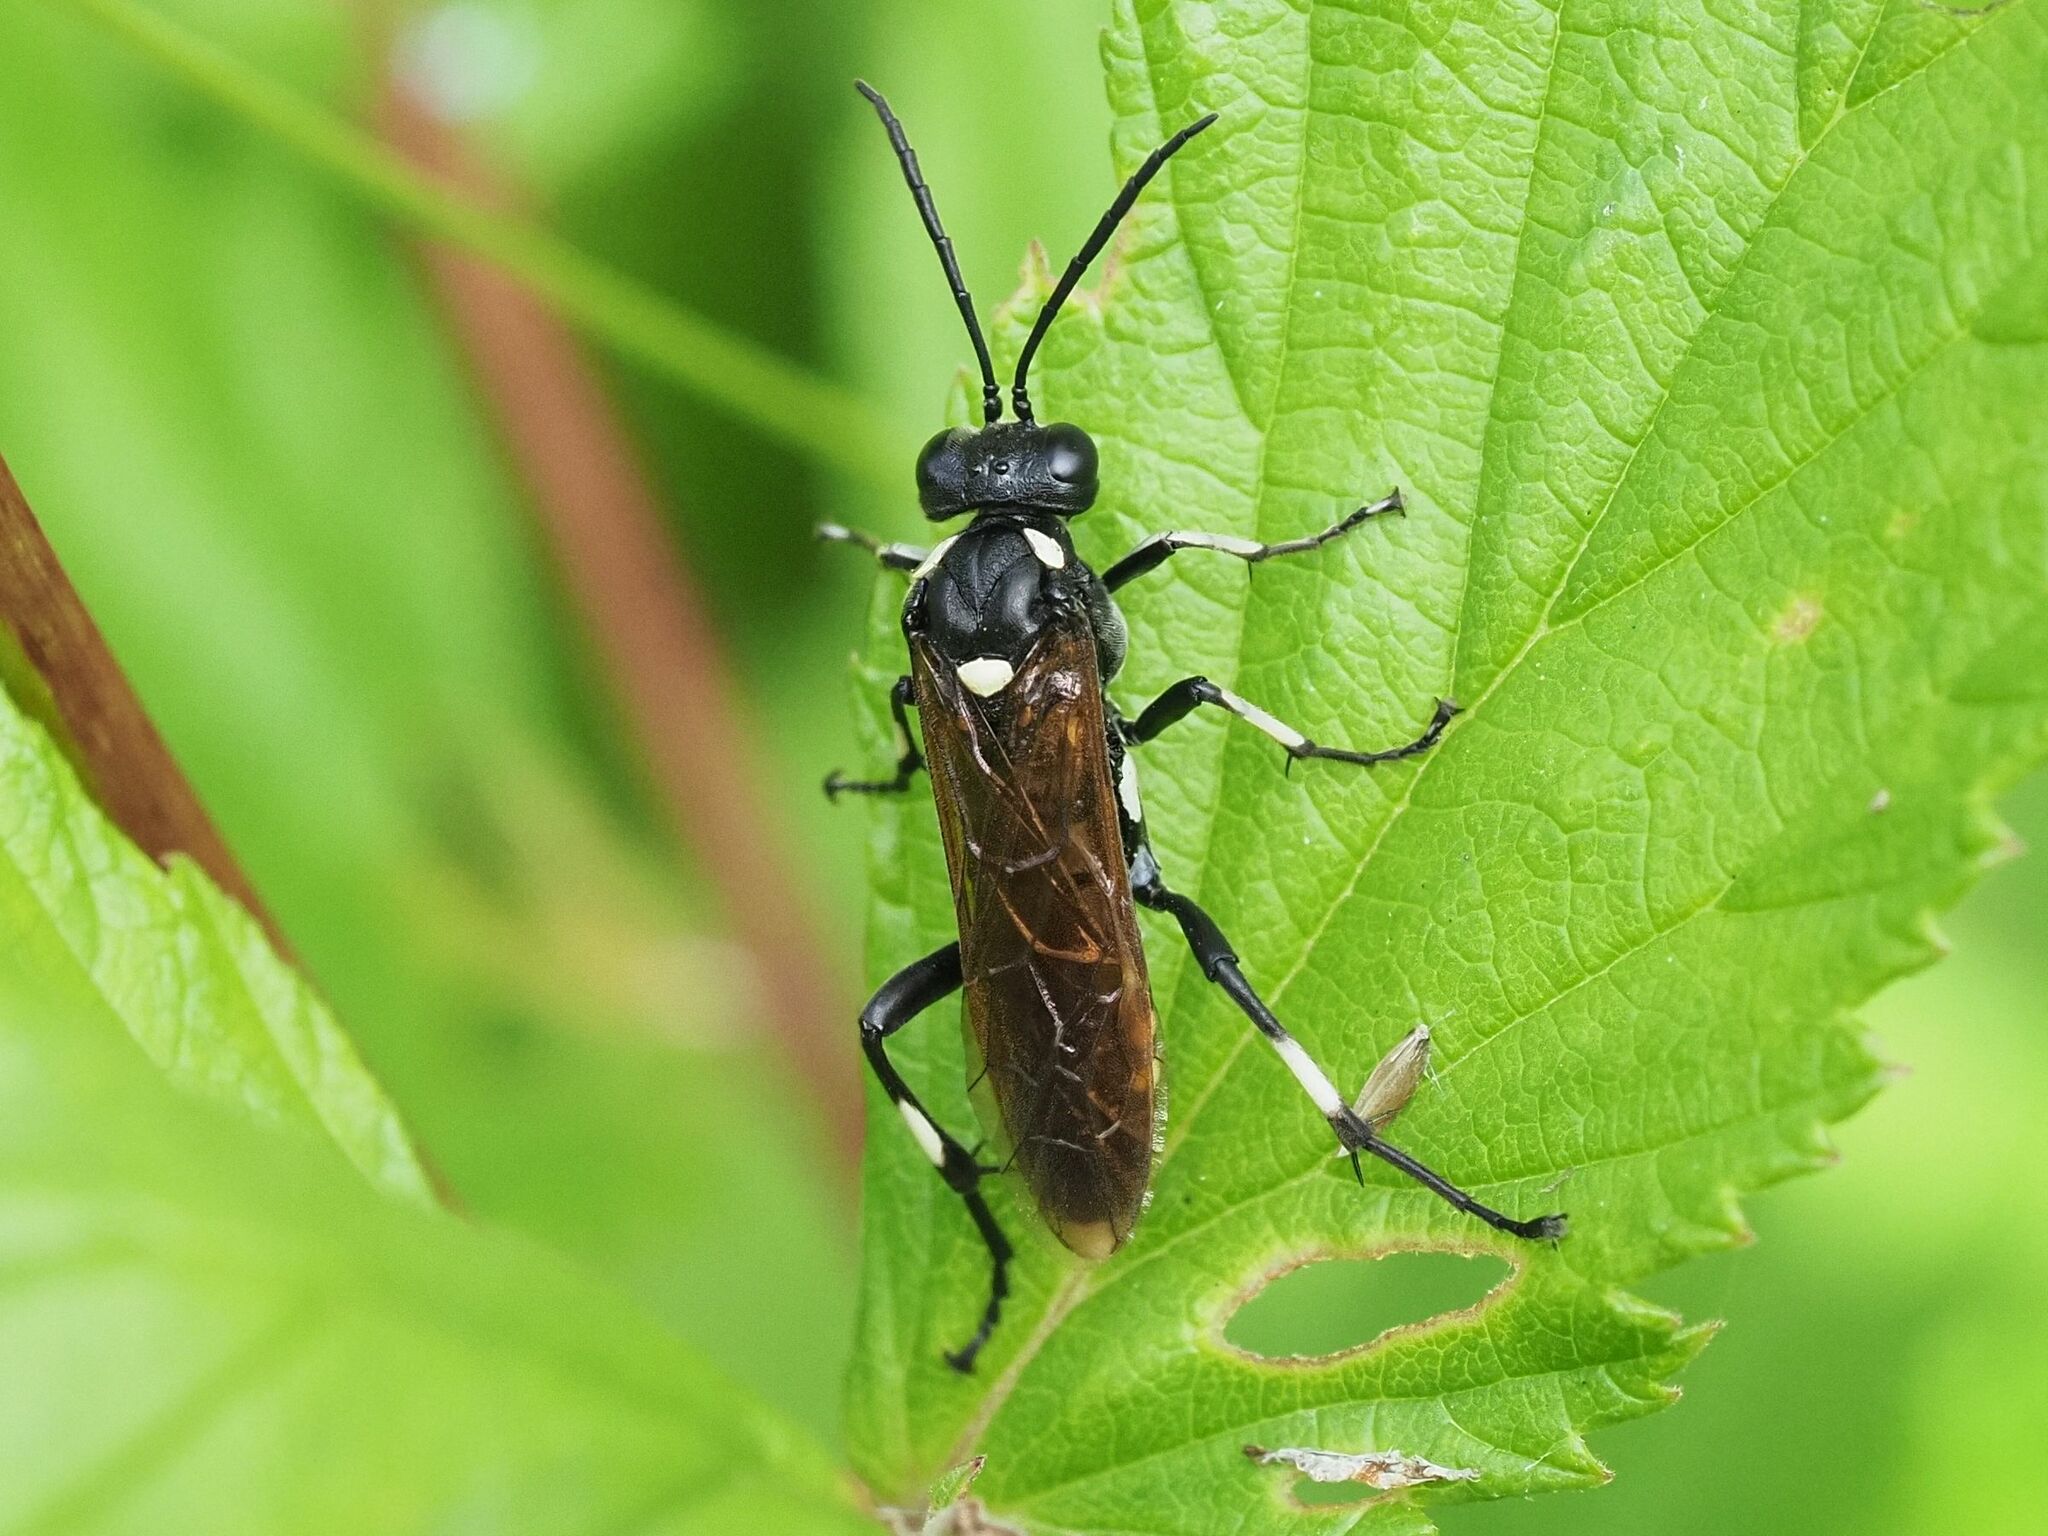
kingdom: Animalia
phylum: Arthropoda
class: Insecta
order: Hymenoptera
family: Tenthredinidae
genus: Macrophya
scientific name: Macrophya duodecimpunctata
